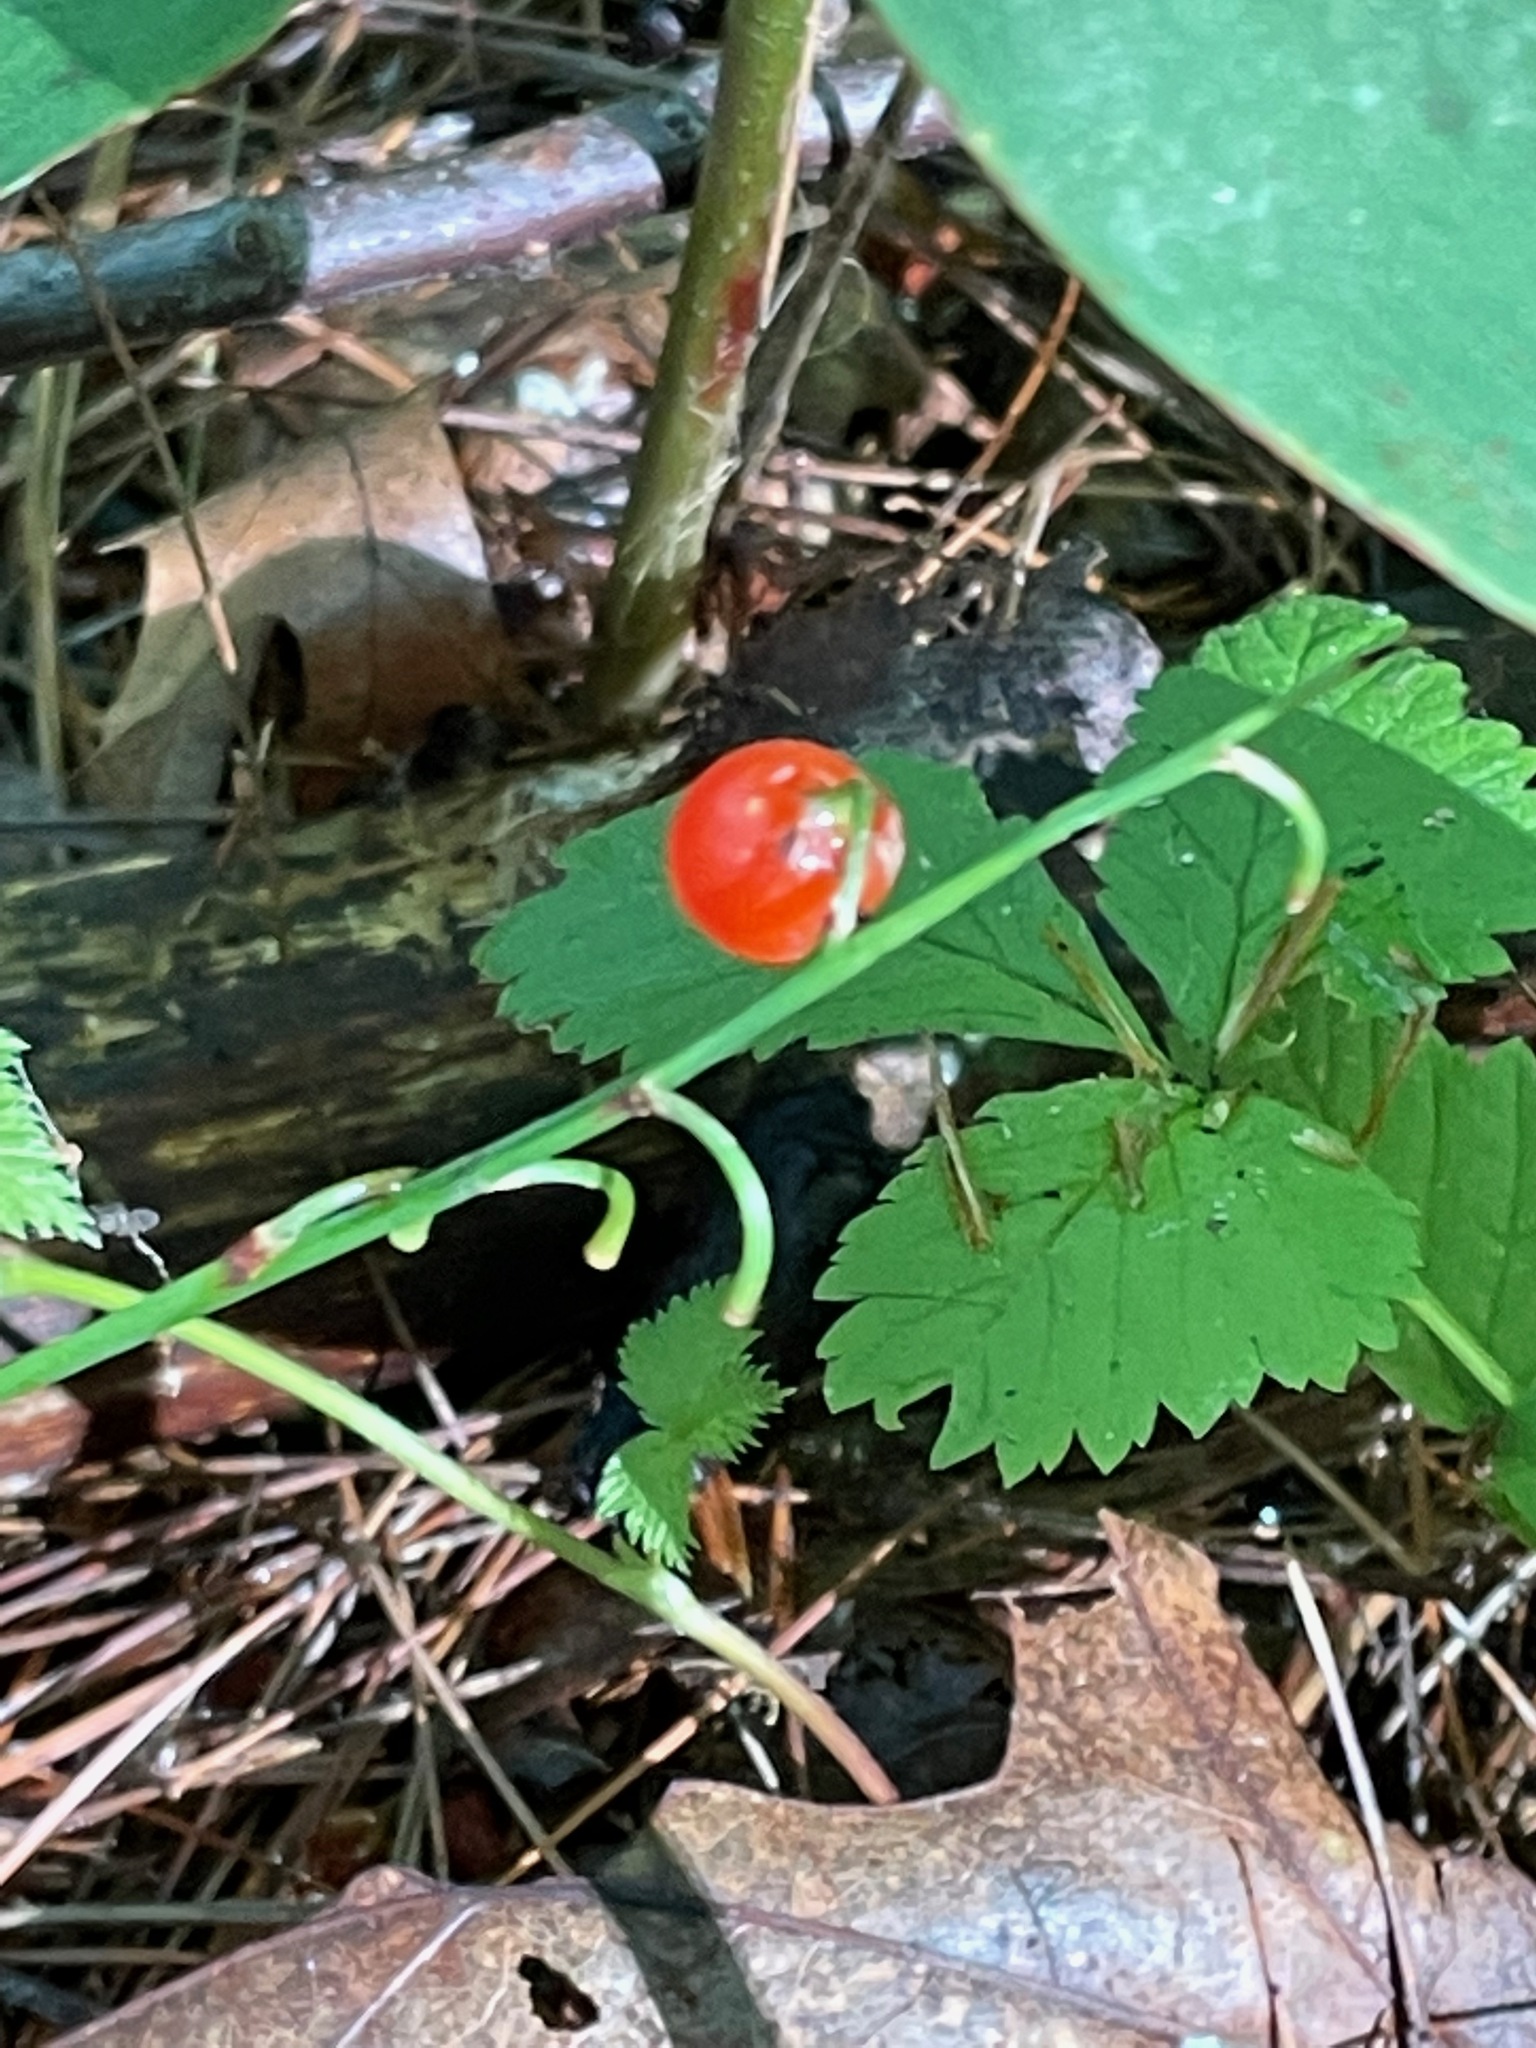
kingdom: Plantae
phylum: Tracheophyta
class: Liliopsida
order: Asparagales
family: Asparagaceae
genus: Convallaria
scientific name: Convallaria majalis
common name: Lily-of-the-valley
